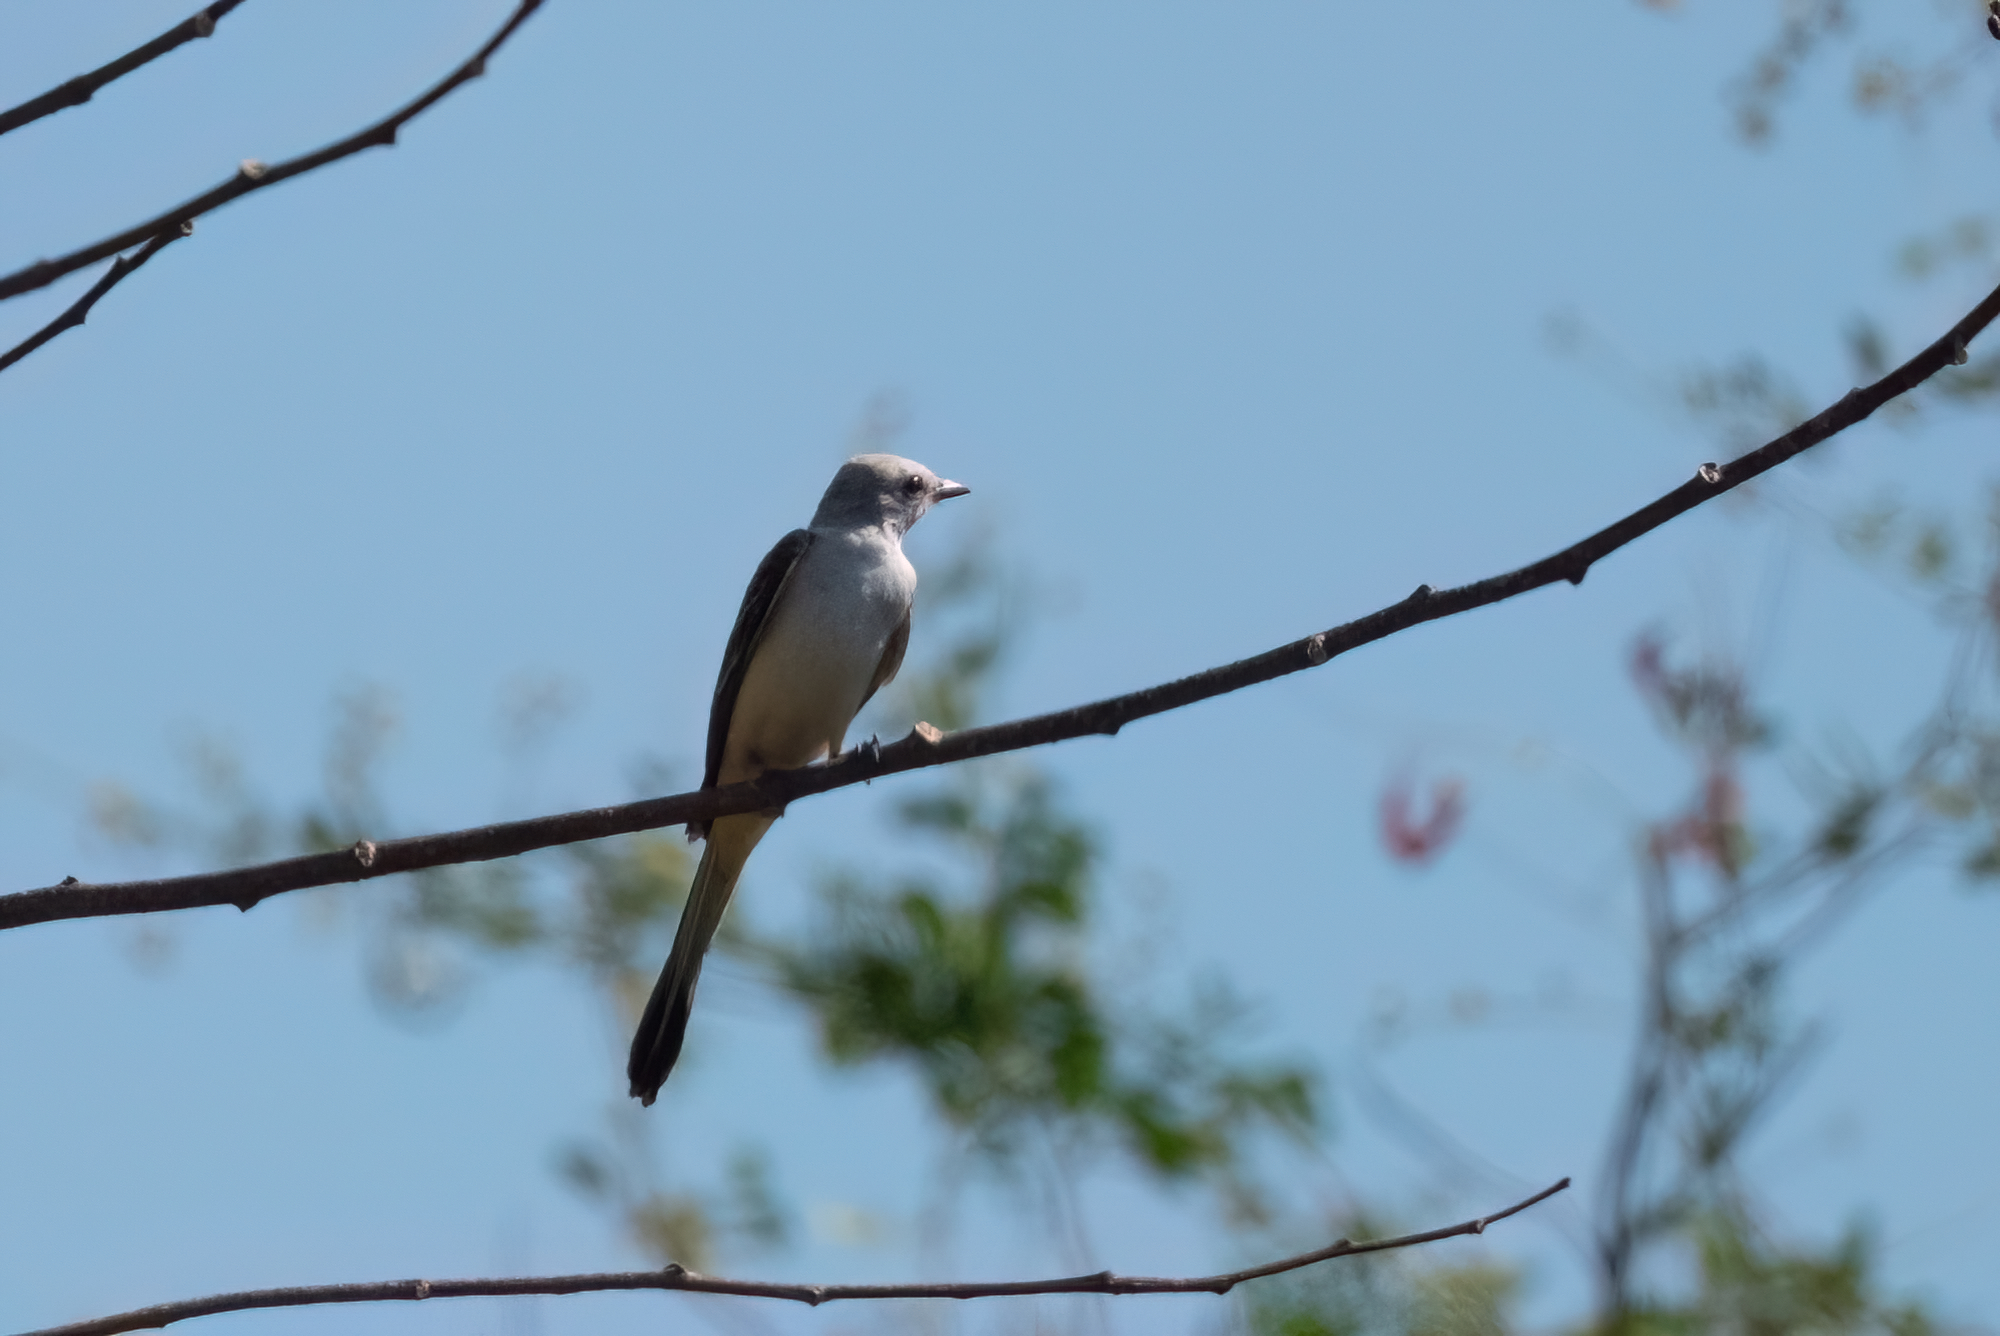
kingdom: Animalia
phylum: Chordata
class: Aves
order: Passeriformes
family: Tyrannidae
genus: Tyrannus
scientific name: Tyrannus forficatus
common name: Scissor-tailed flycatcher
